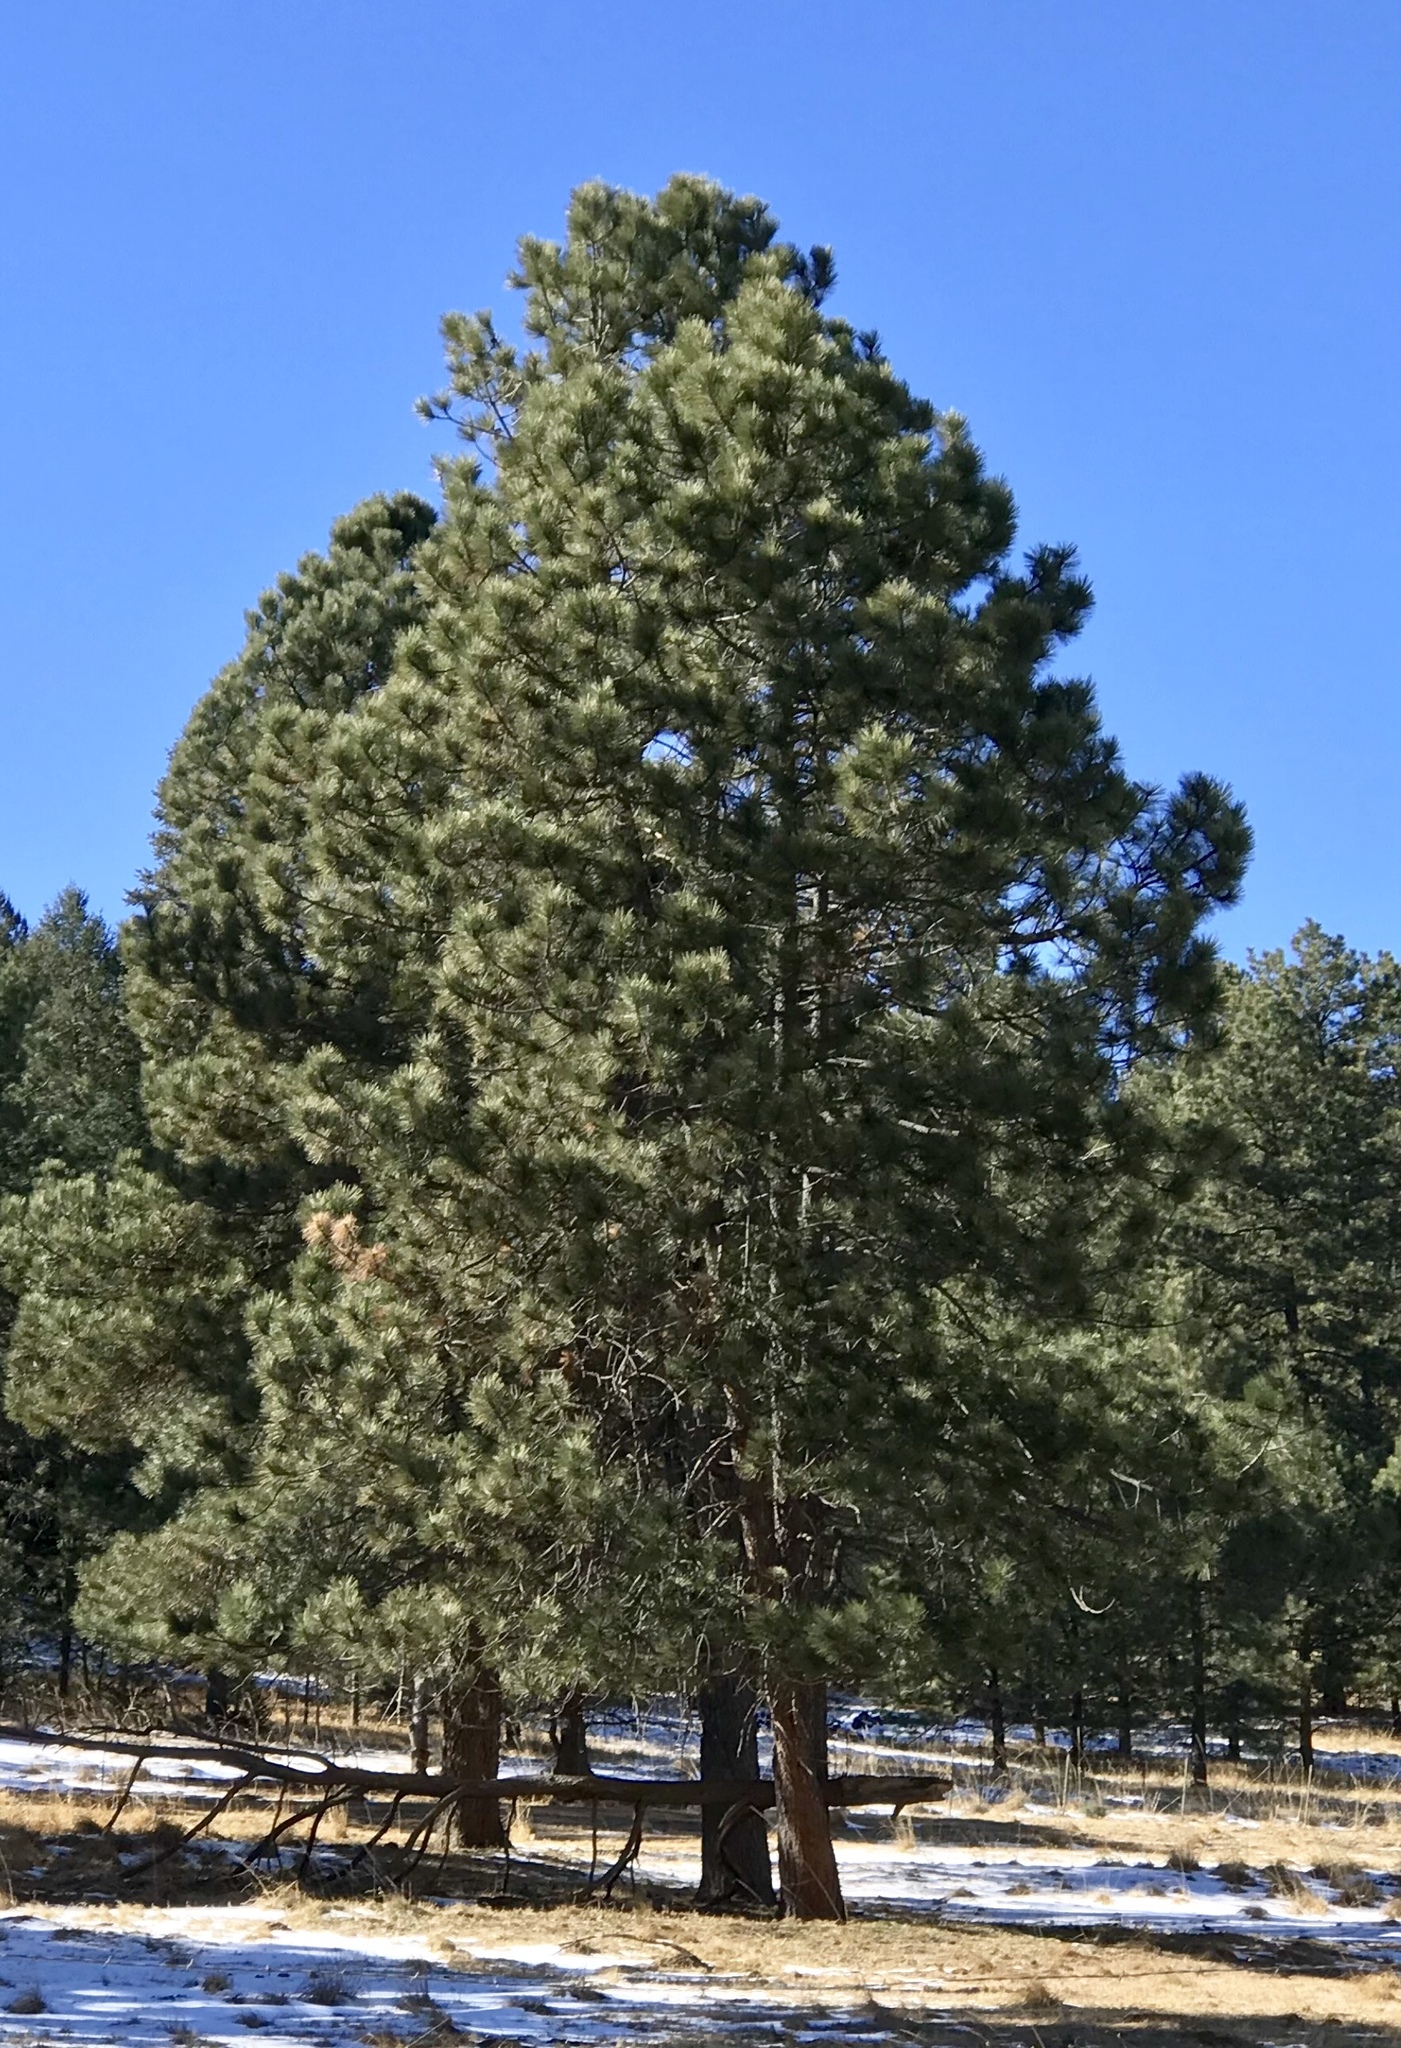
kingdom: Plantae
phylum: Tracheophyta
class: Pinopsida
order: Pinales
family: Pinaceae
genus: Pinus
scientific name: Pinus ponderosa
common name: Western yellow-pine
